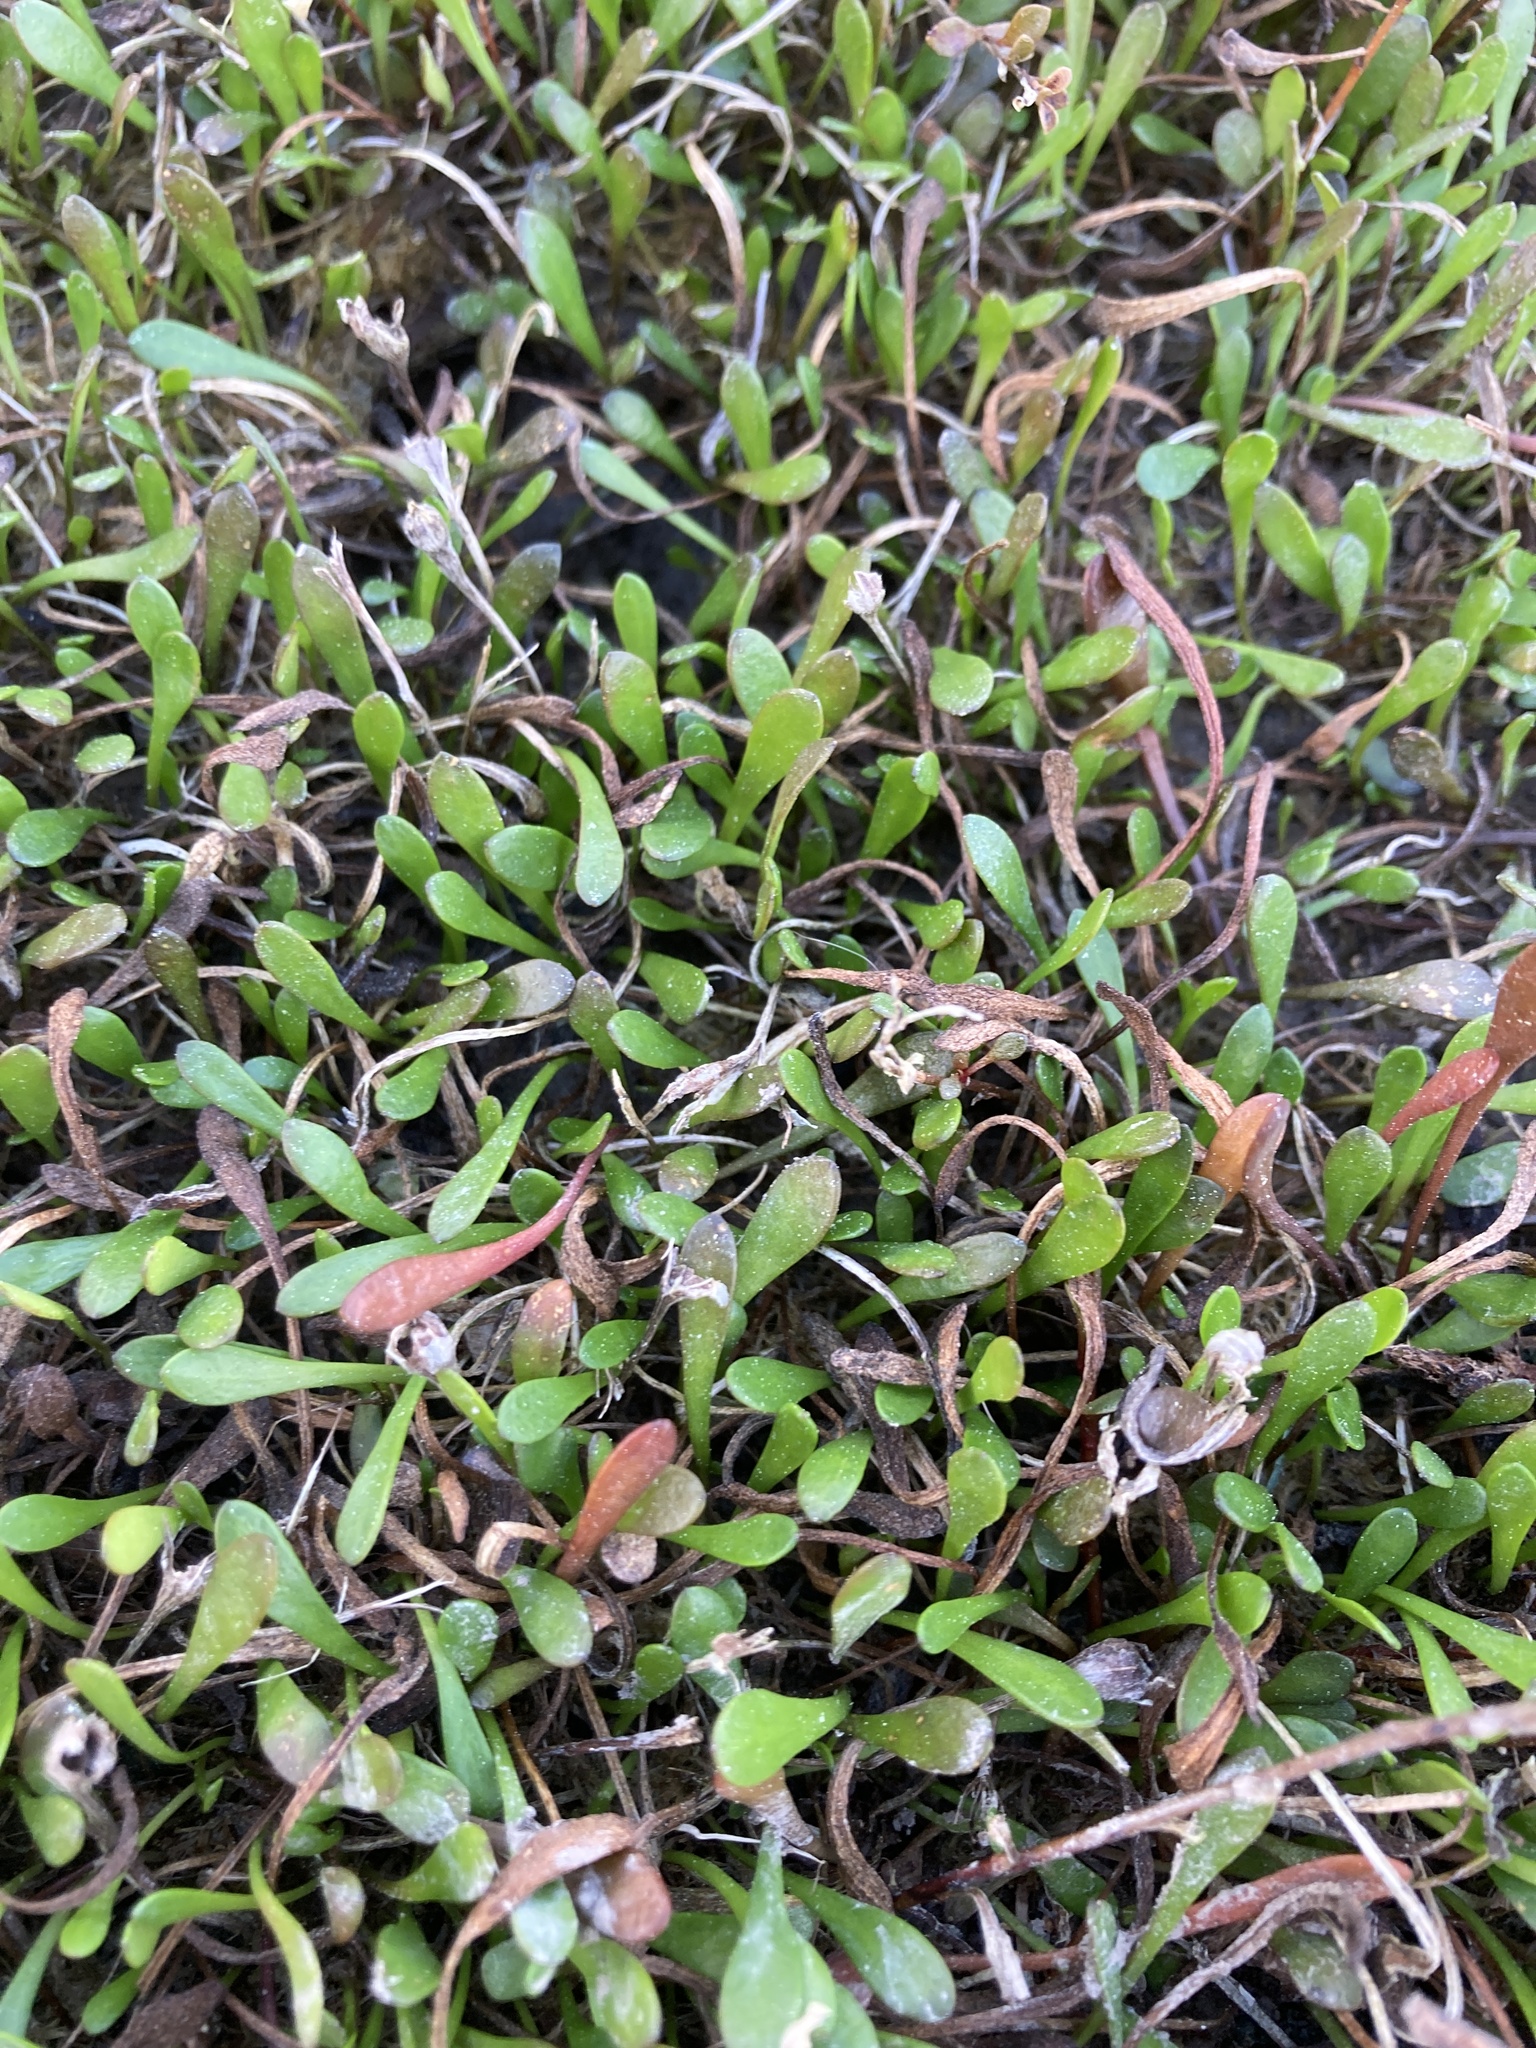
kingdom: Plantae
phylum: Tracheophyta
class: Magnoliopsida
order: Asterales
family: Goodeniaceae
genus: Goodenia
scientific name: Goodenia radicans
